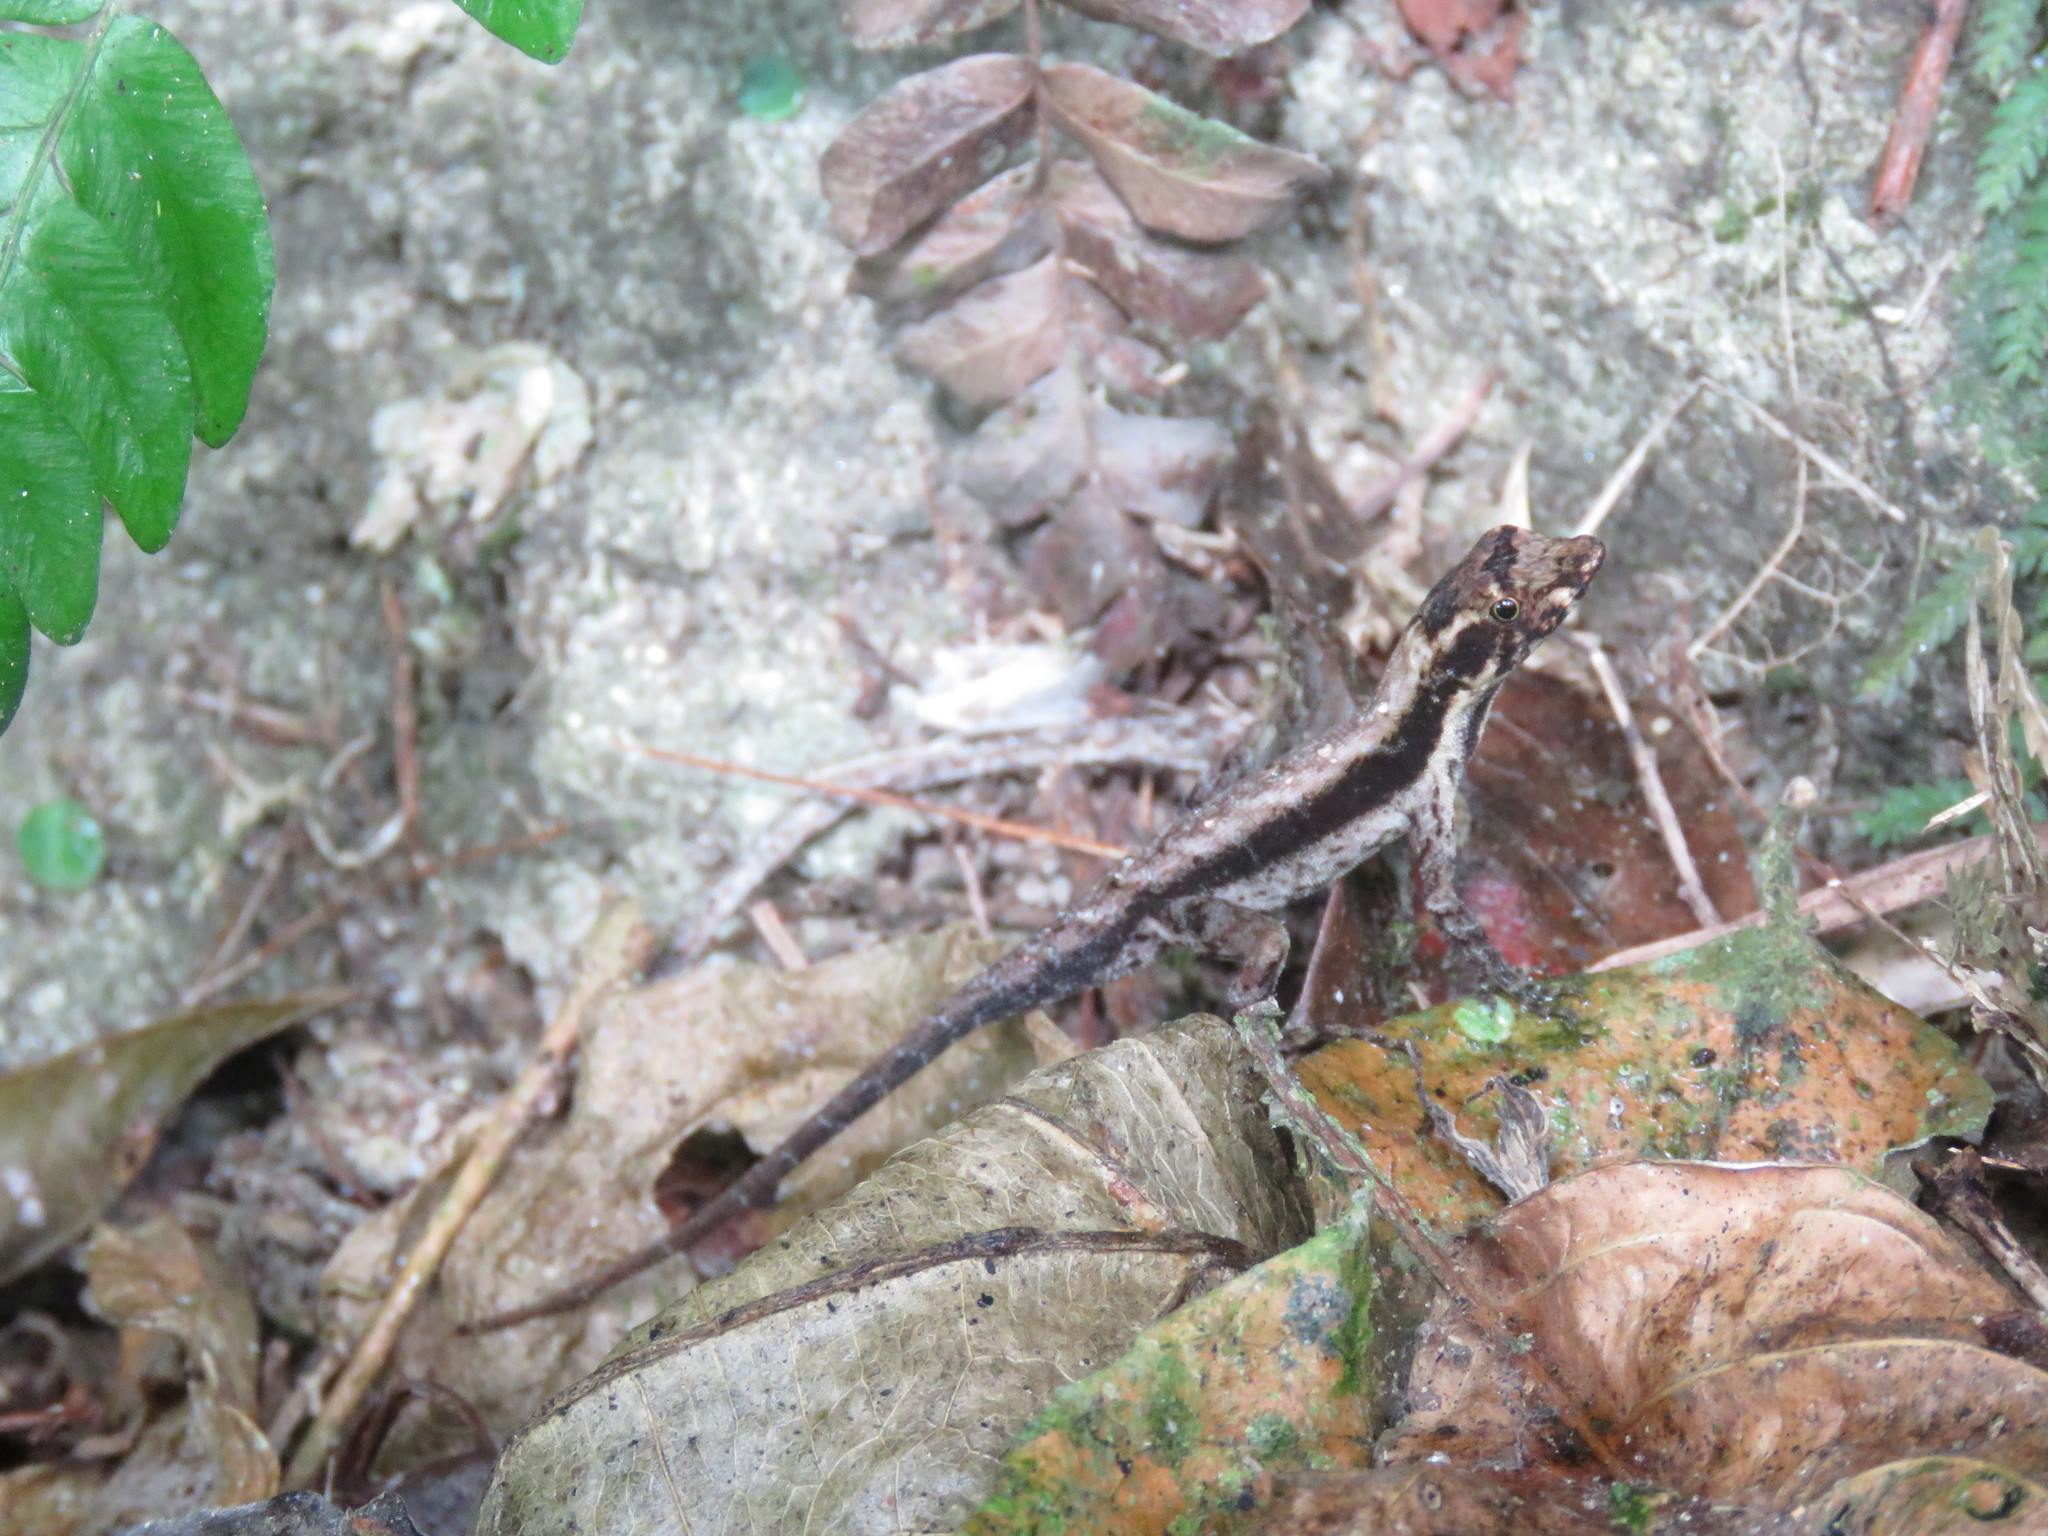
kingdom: Animalia
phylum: Chordata
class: Squamata
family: Dactyloidae
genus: Anolis
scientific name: Anolis humilis
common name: Humble anole
